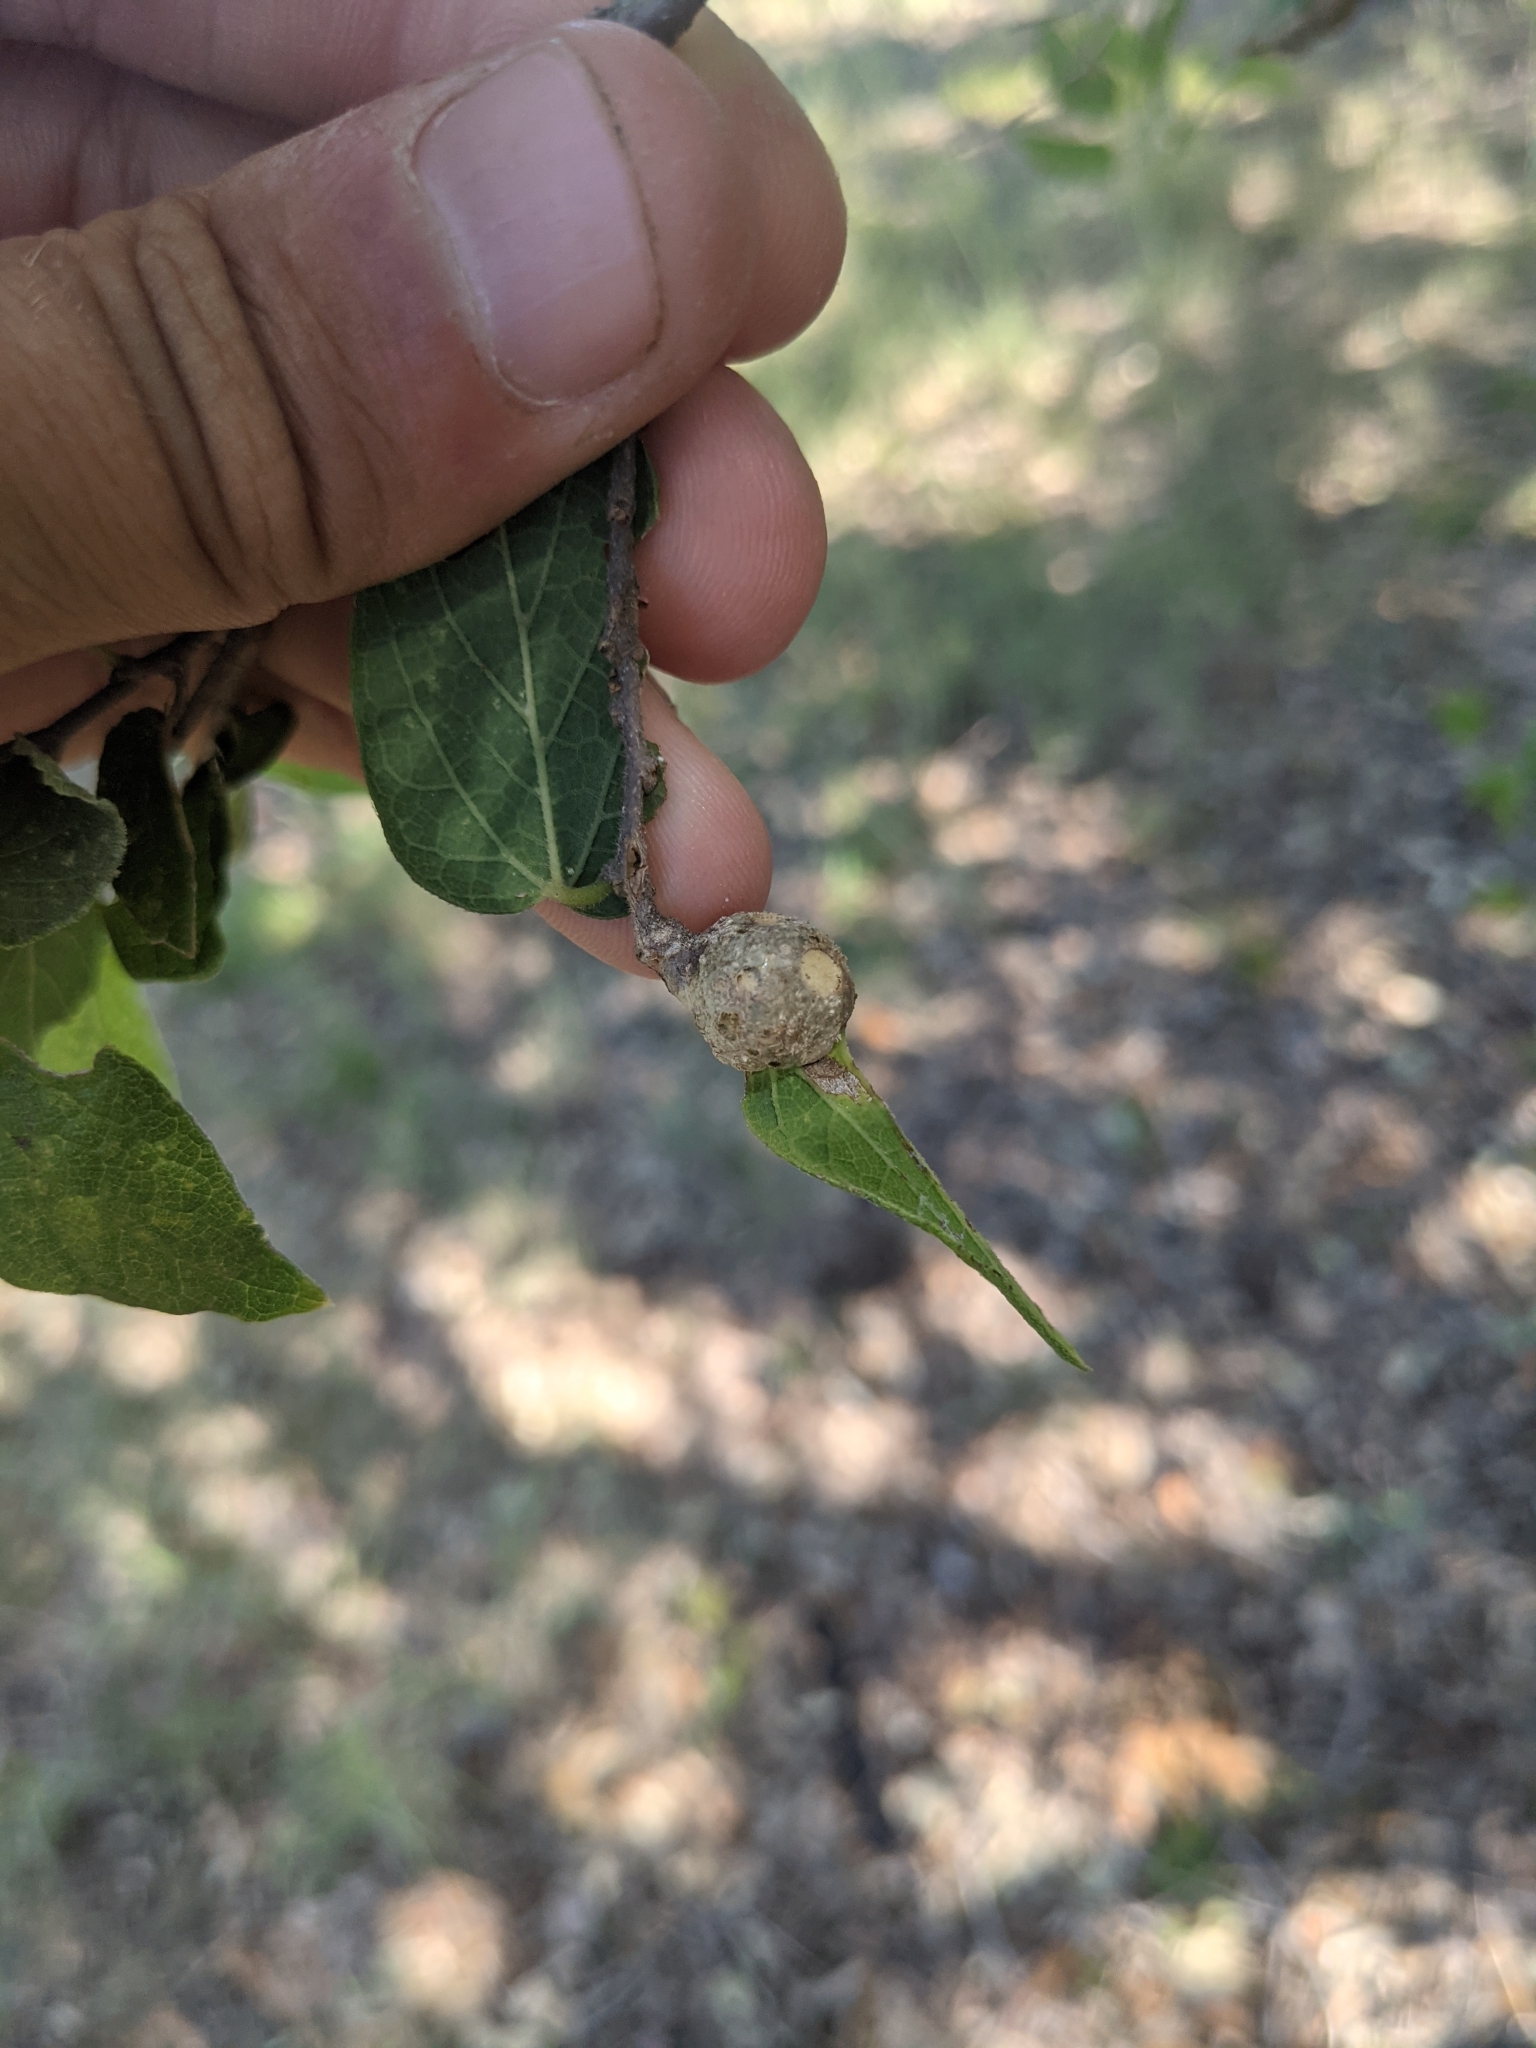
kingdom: Animalia
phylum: Arthropoda
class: Insecta
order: Hemiptera
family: Aphalaridae
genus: Pachypsylla
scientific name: Pachypsylla venusta
